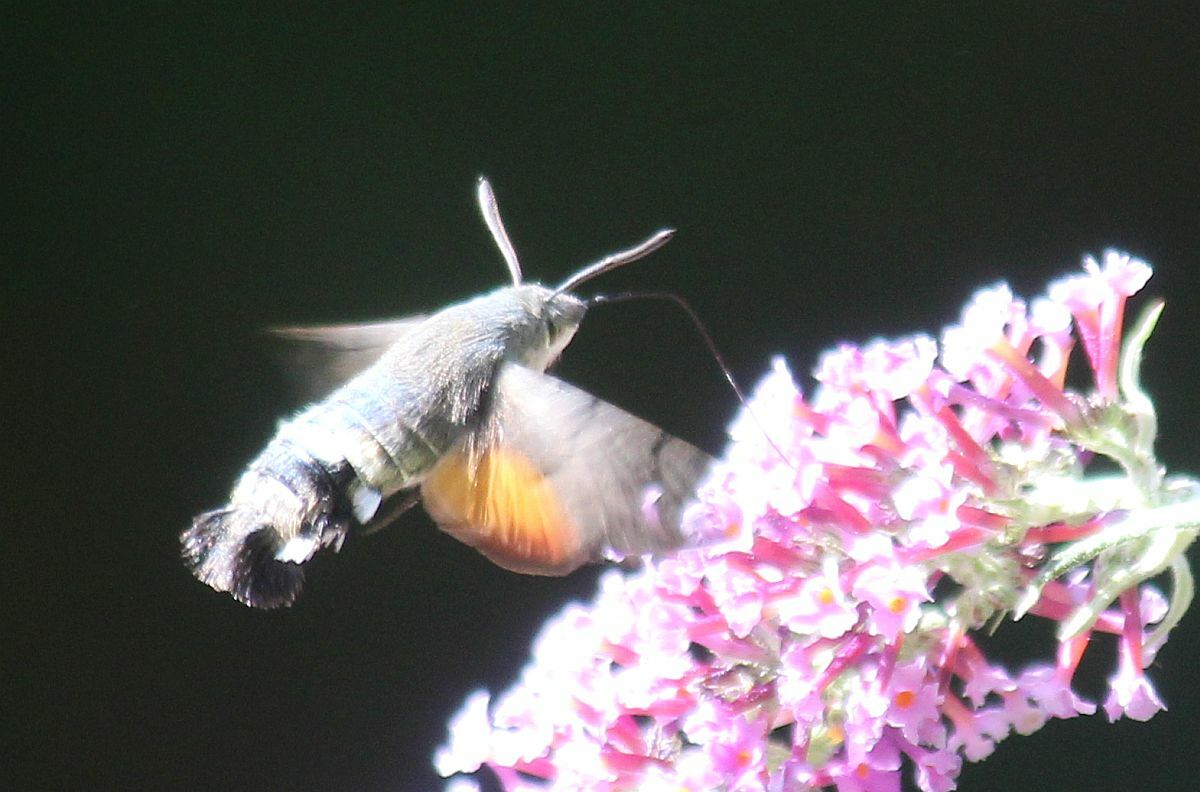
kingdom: Animalia
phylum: Arthropoda
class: Insecta
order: Lepidoptera
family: Sphingidae
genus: Macroglossum
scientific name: Macroglossum stellatarum
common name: Humming-bird hawk-moth
